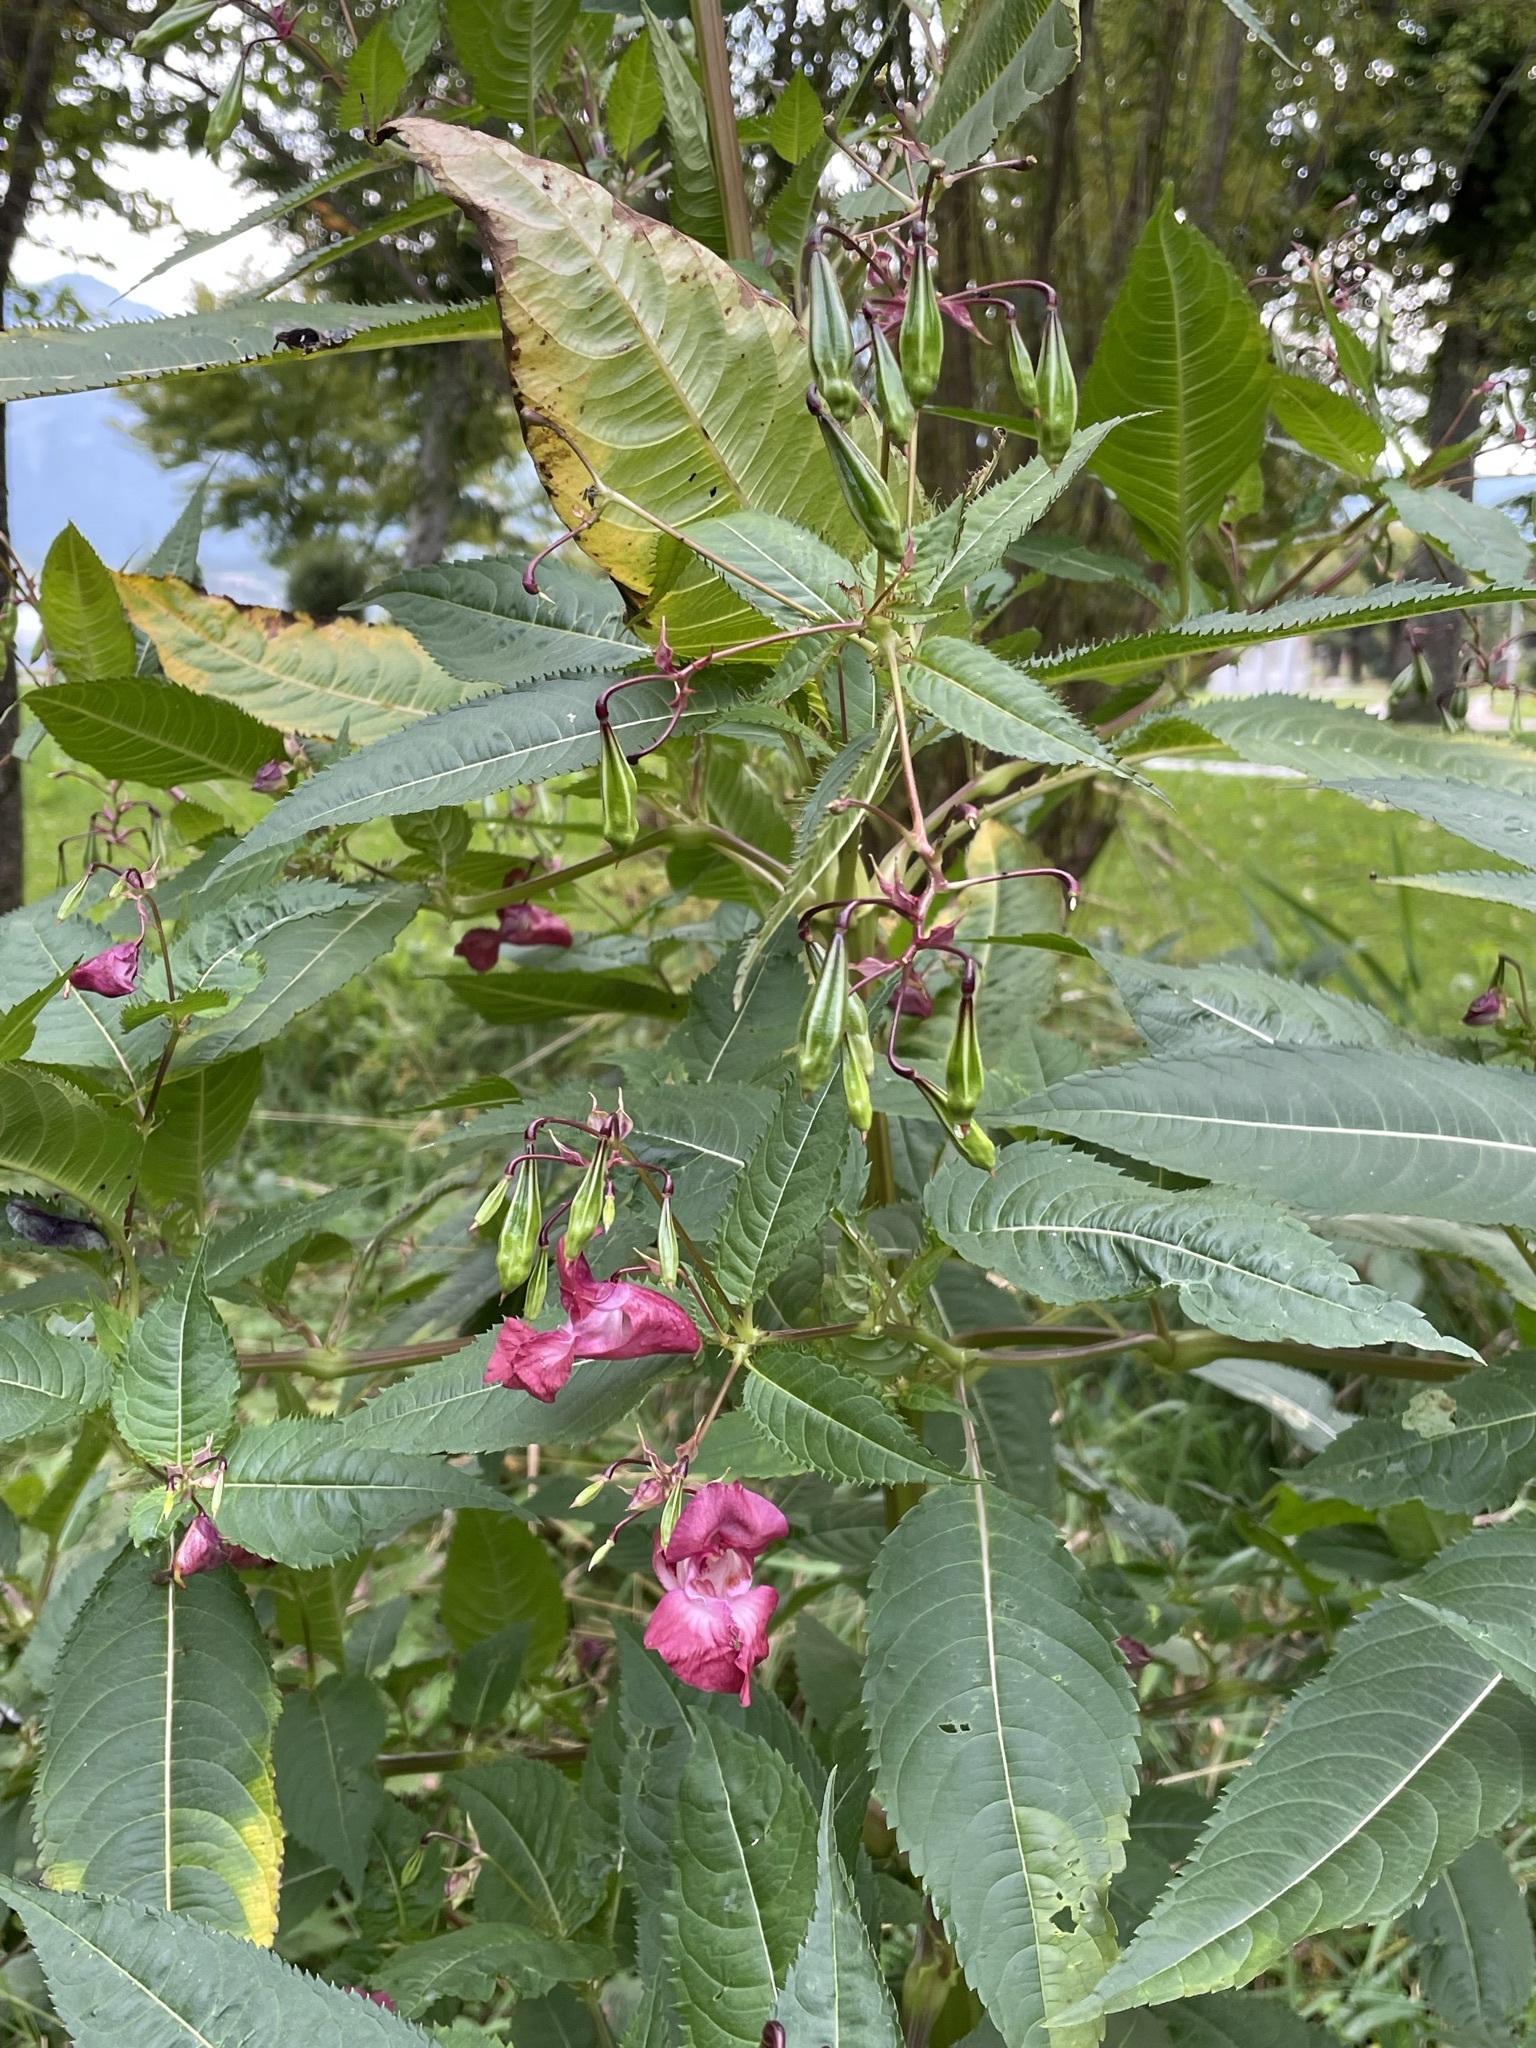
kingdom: Plantae
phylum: Tracheophyta
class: Magnoliopsida
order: Ericales
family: Balsaminaceae
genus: Impatiens
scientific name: Impatiens glandulifera
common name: Himalayan balsam
